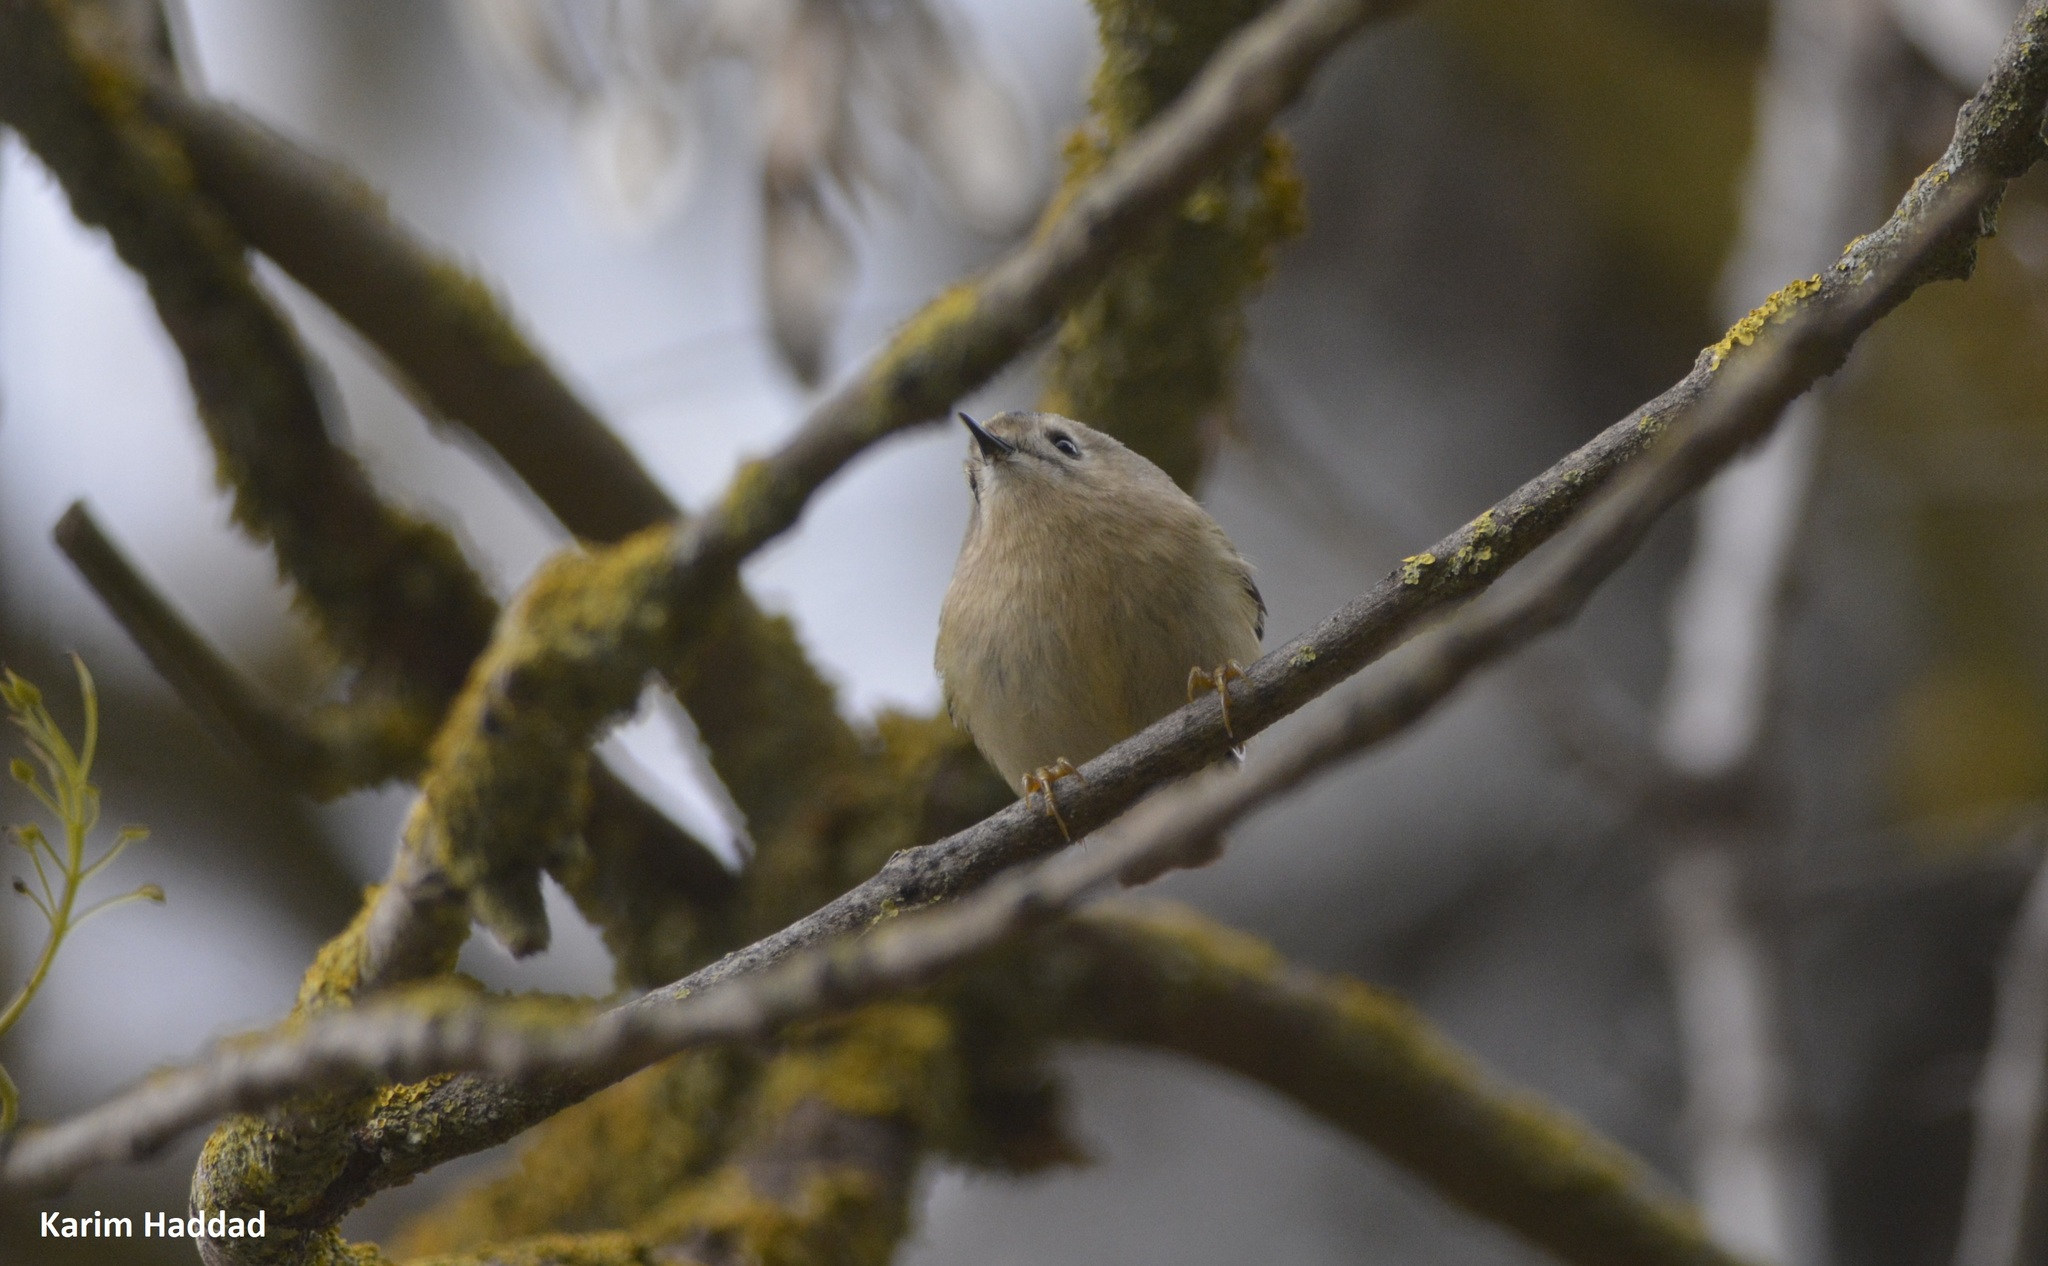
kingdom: Animalia
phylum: Chordata
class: Aves
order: Passeriformes
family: Regulidae
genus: Regulus
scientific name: Regulus regulus
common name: Goldcrest
